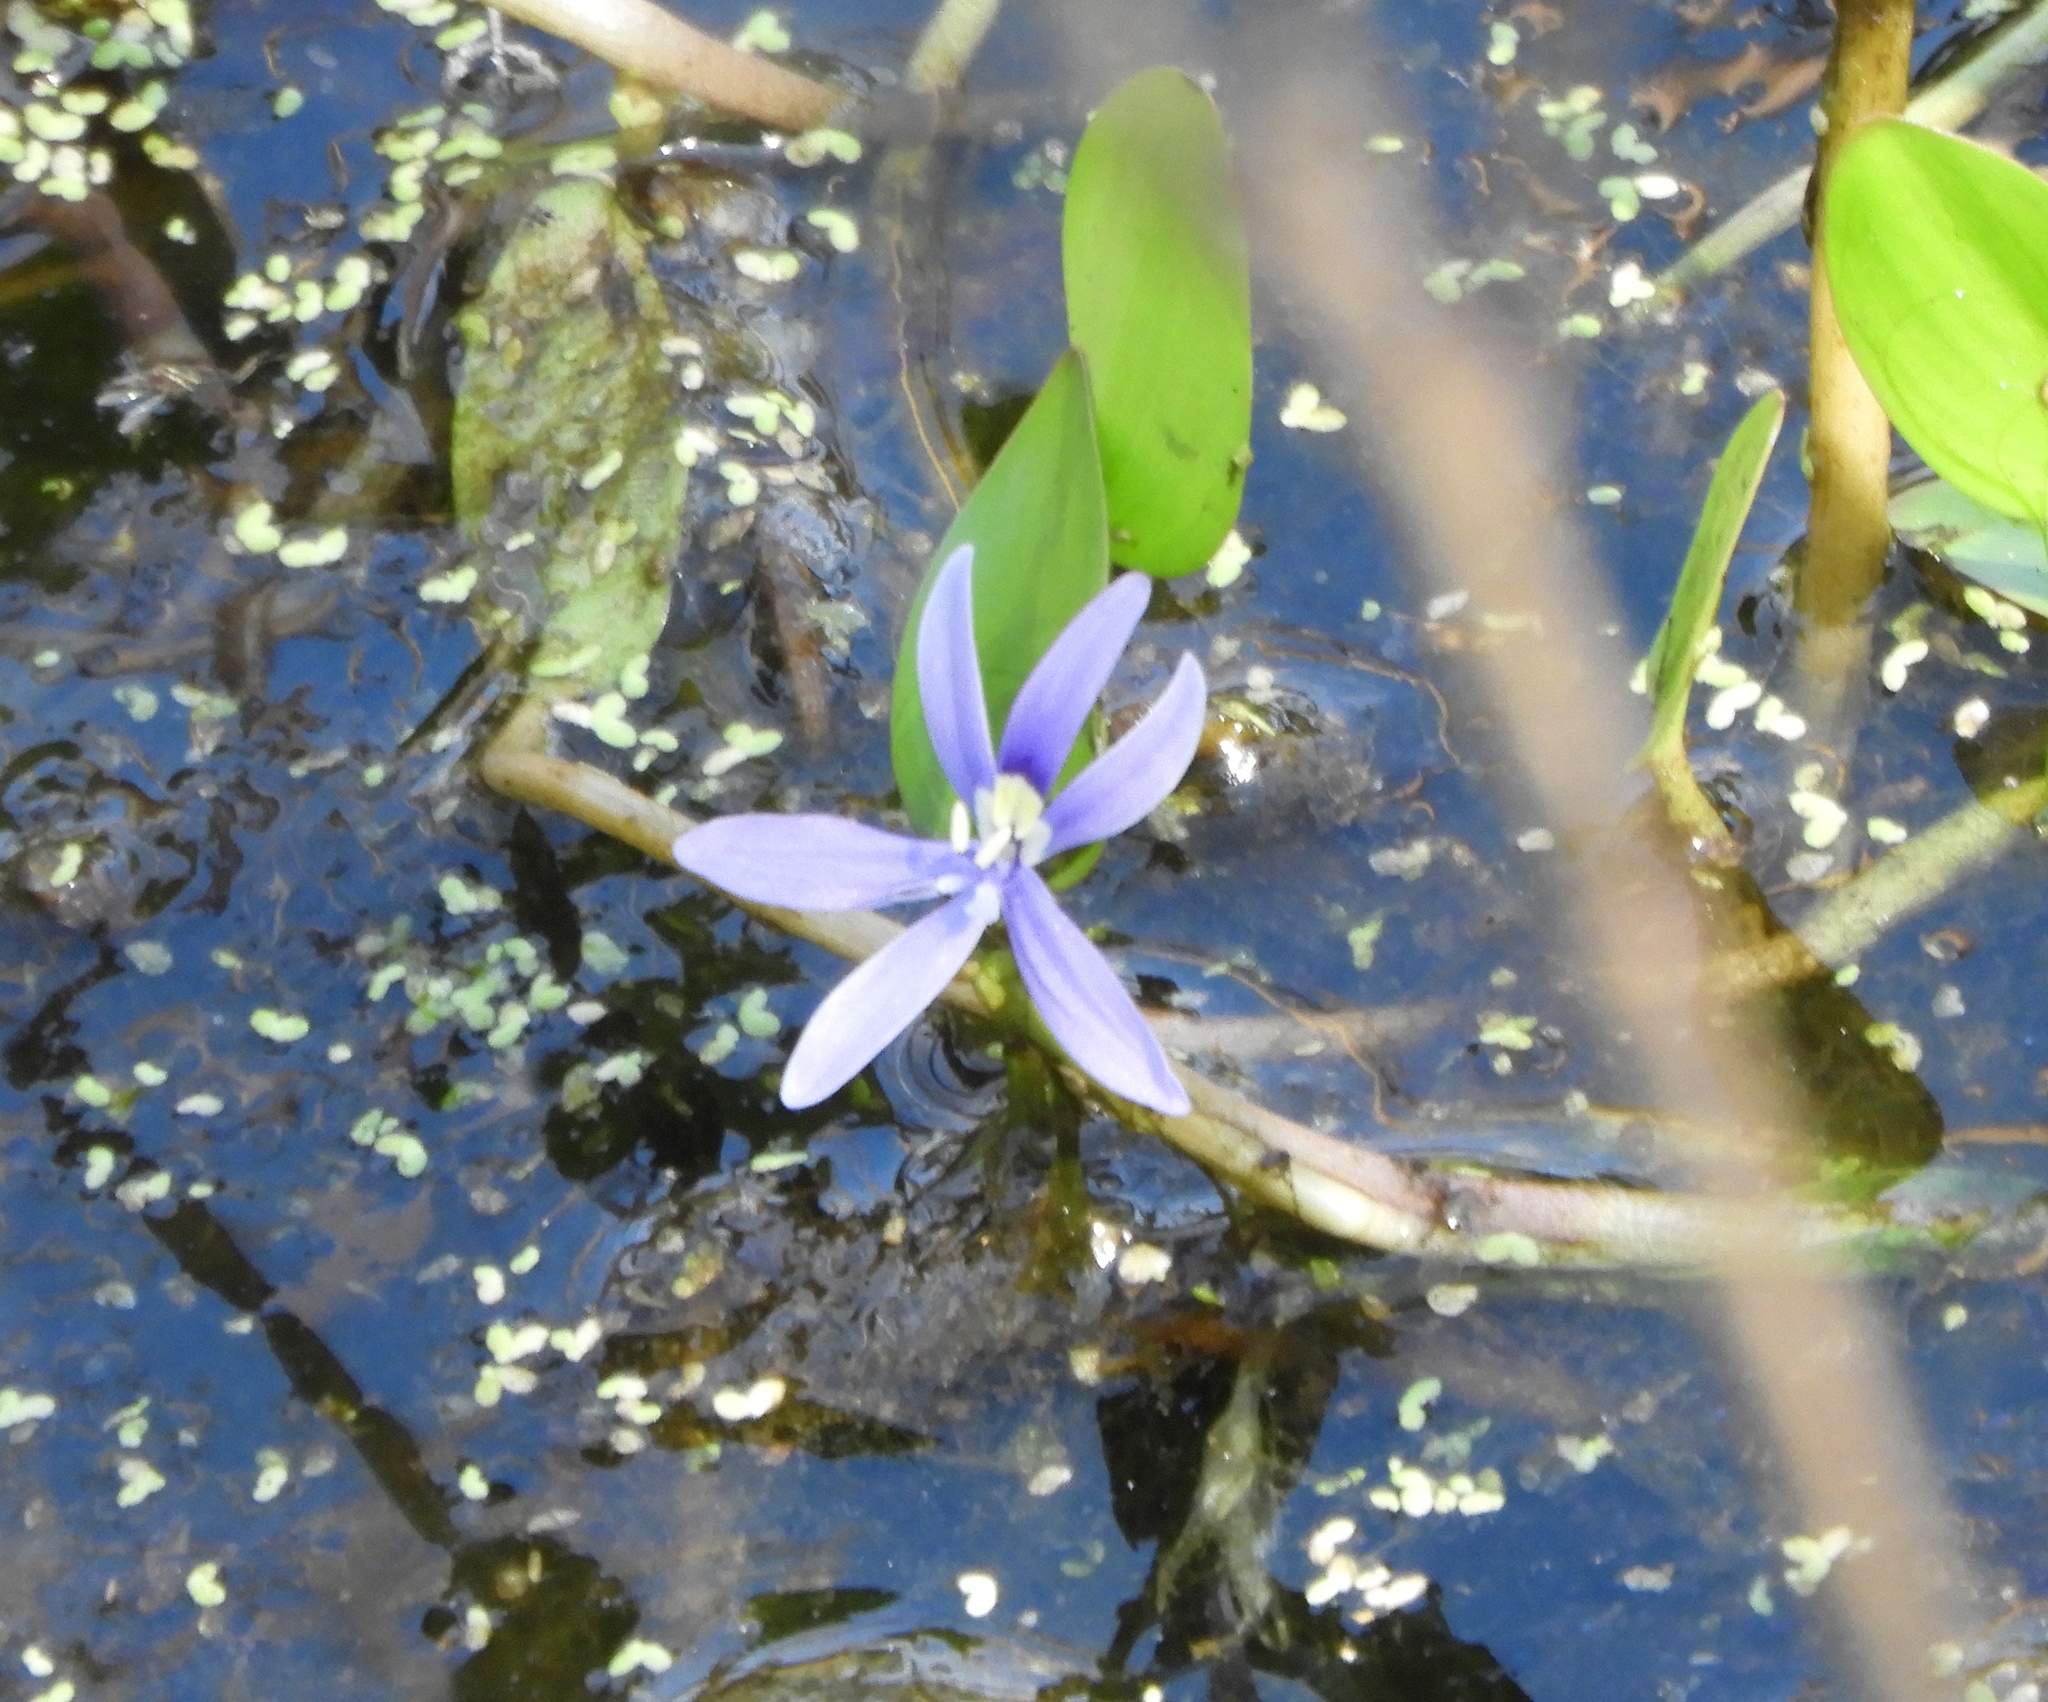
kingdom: Plantae
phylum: Tracheophyta
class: Liliopsida
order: Commelinales
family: Pontederiaceae
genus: Heteranthera
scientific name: Heteranthera limosa
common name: Blue mud-plantain
